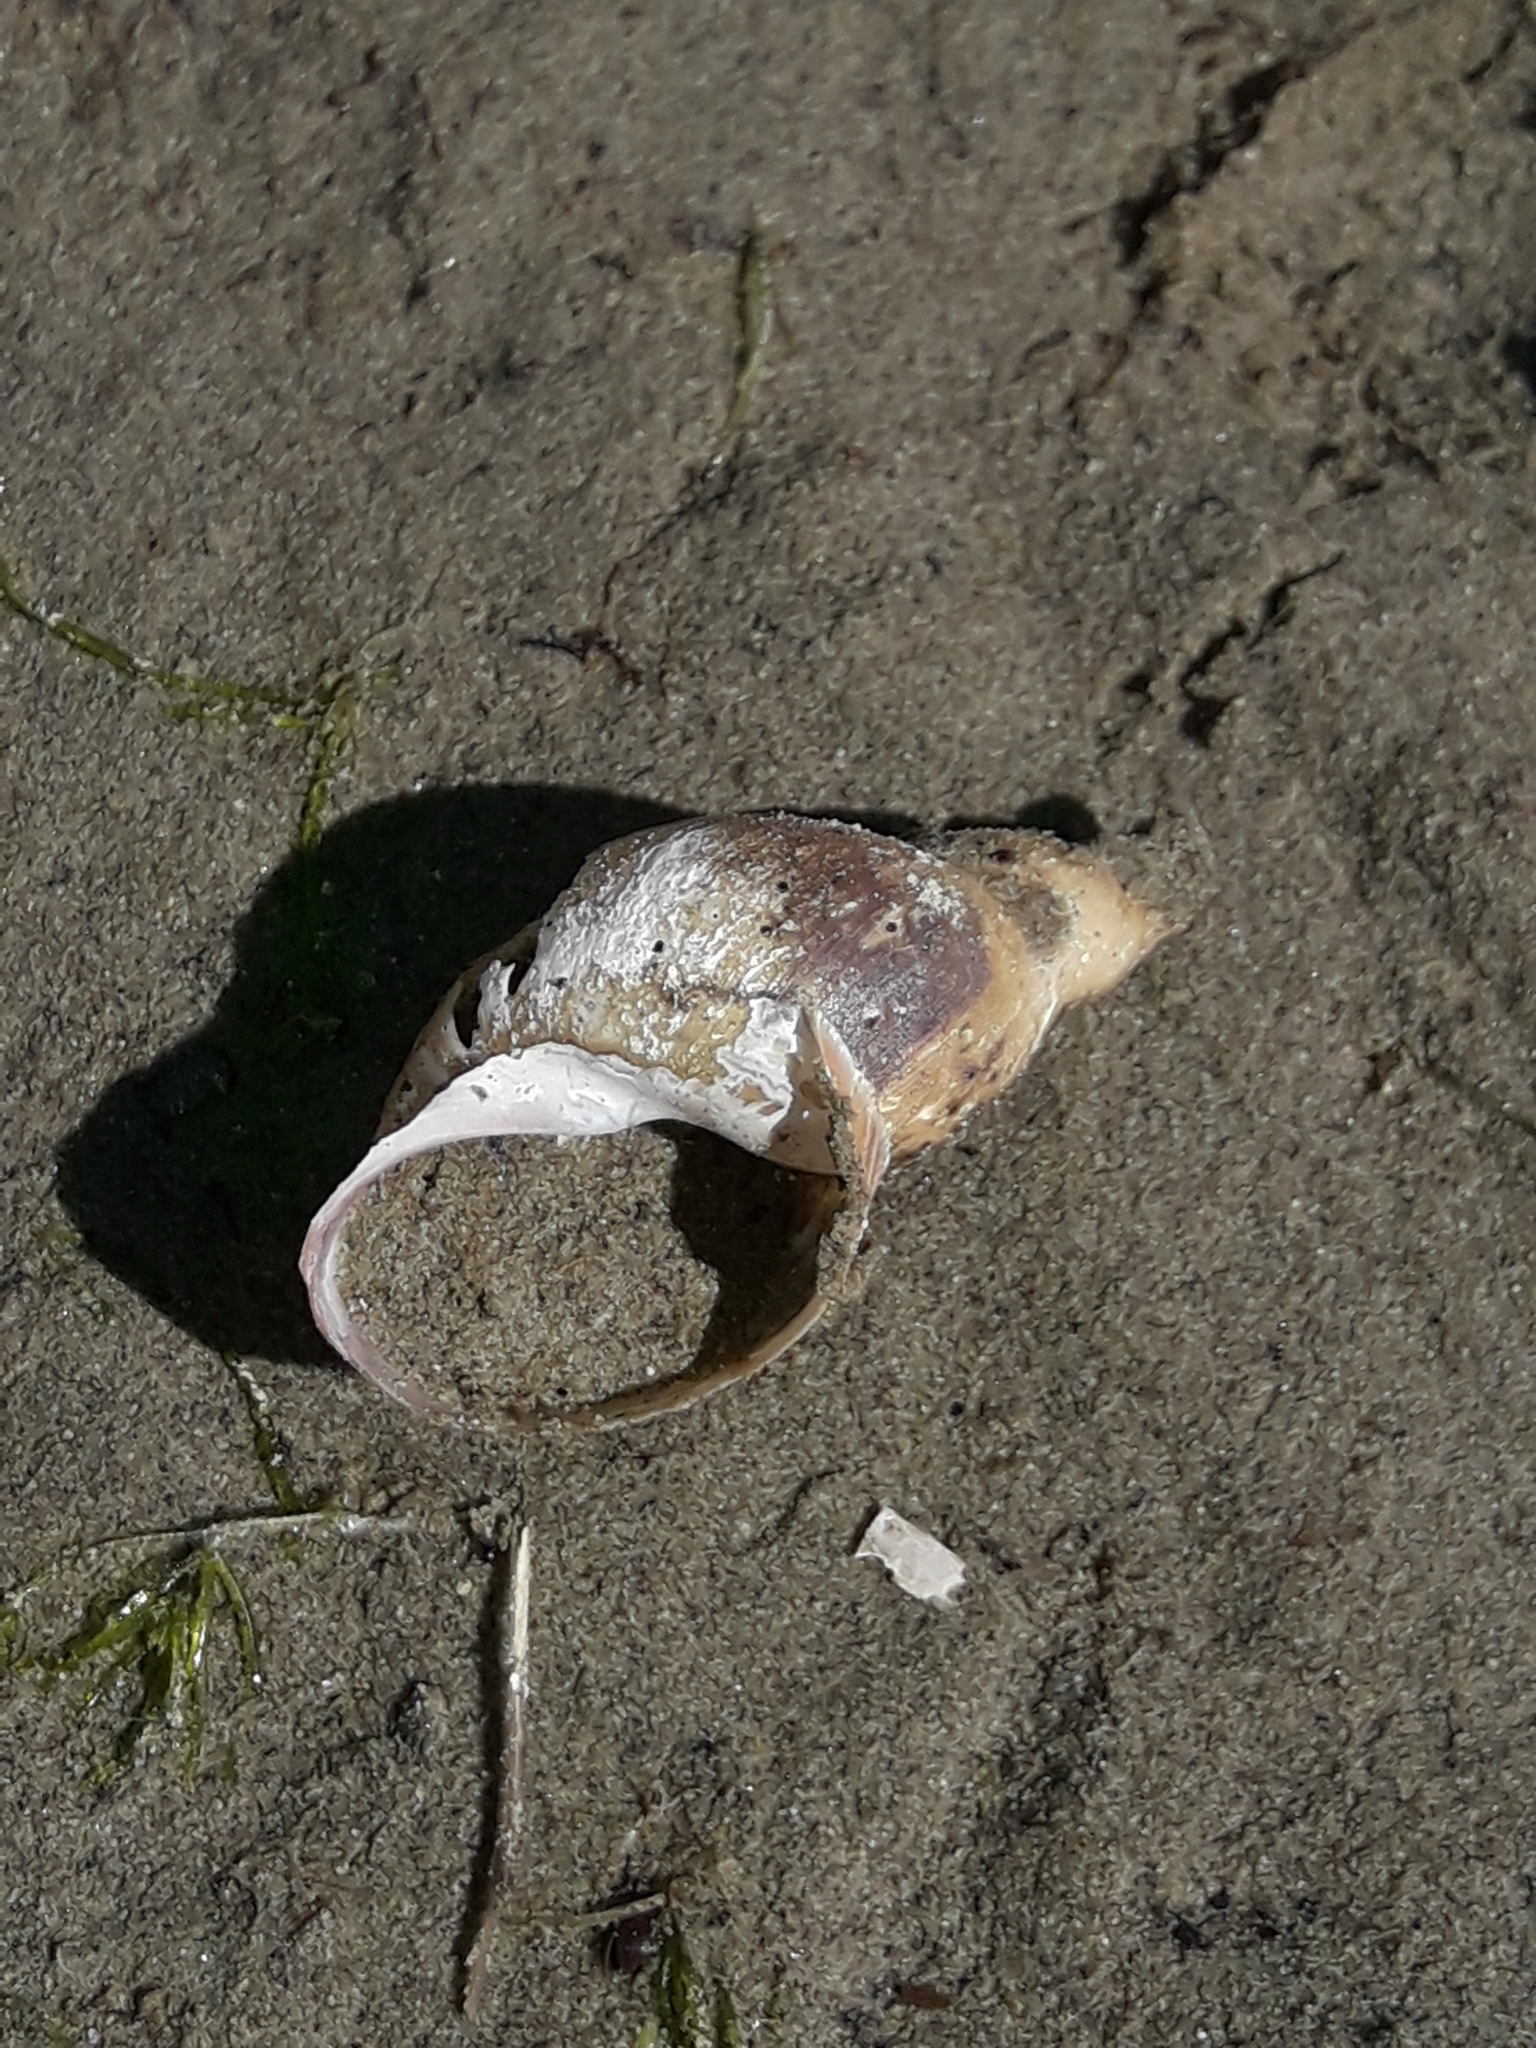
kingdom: Animalia
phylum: Mollusca
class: Gastropoda
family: Lymnaeidae
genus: Lymnaea
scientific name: Lymnaea stagnalis
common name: Great pond snail
